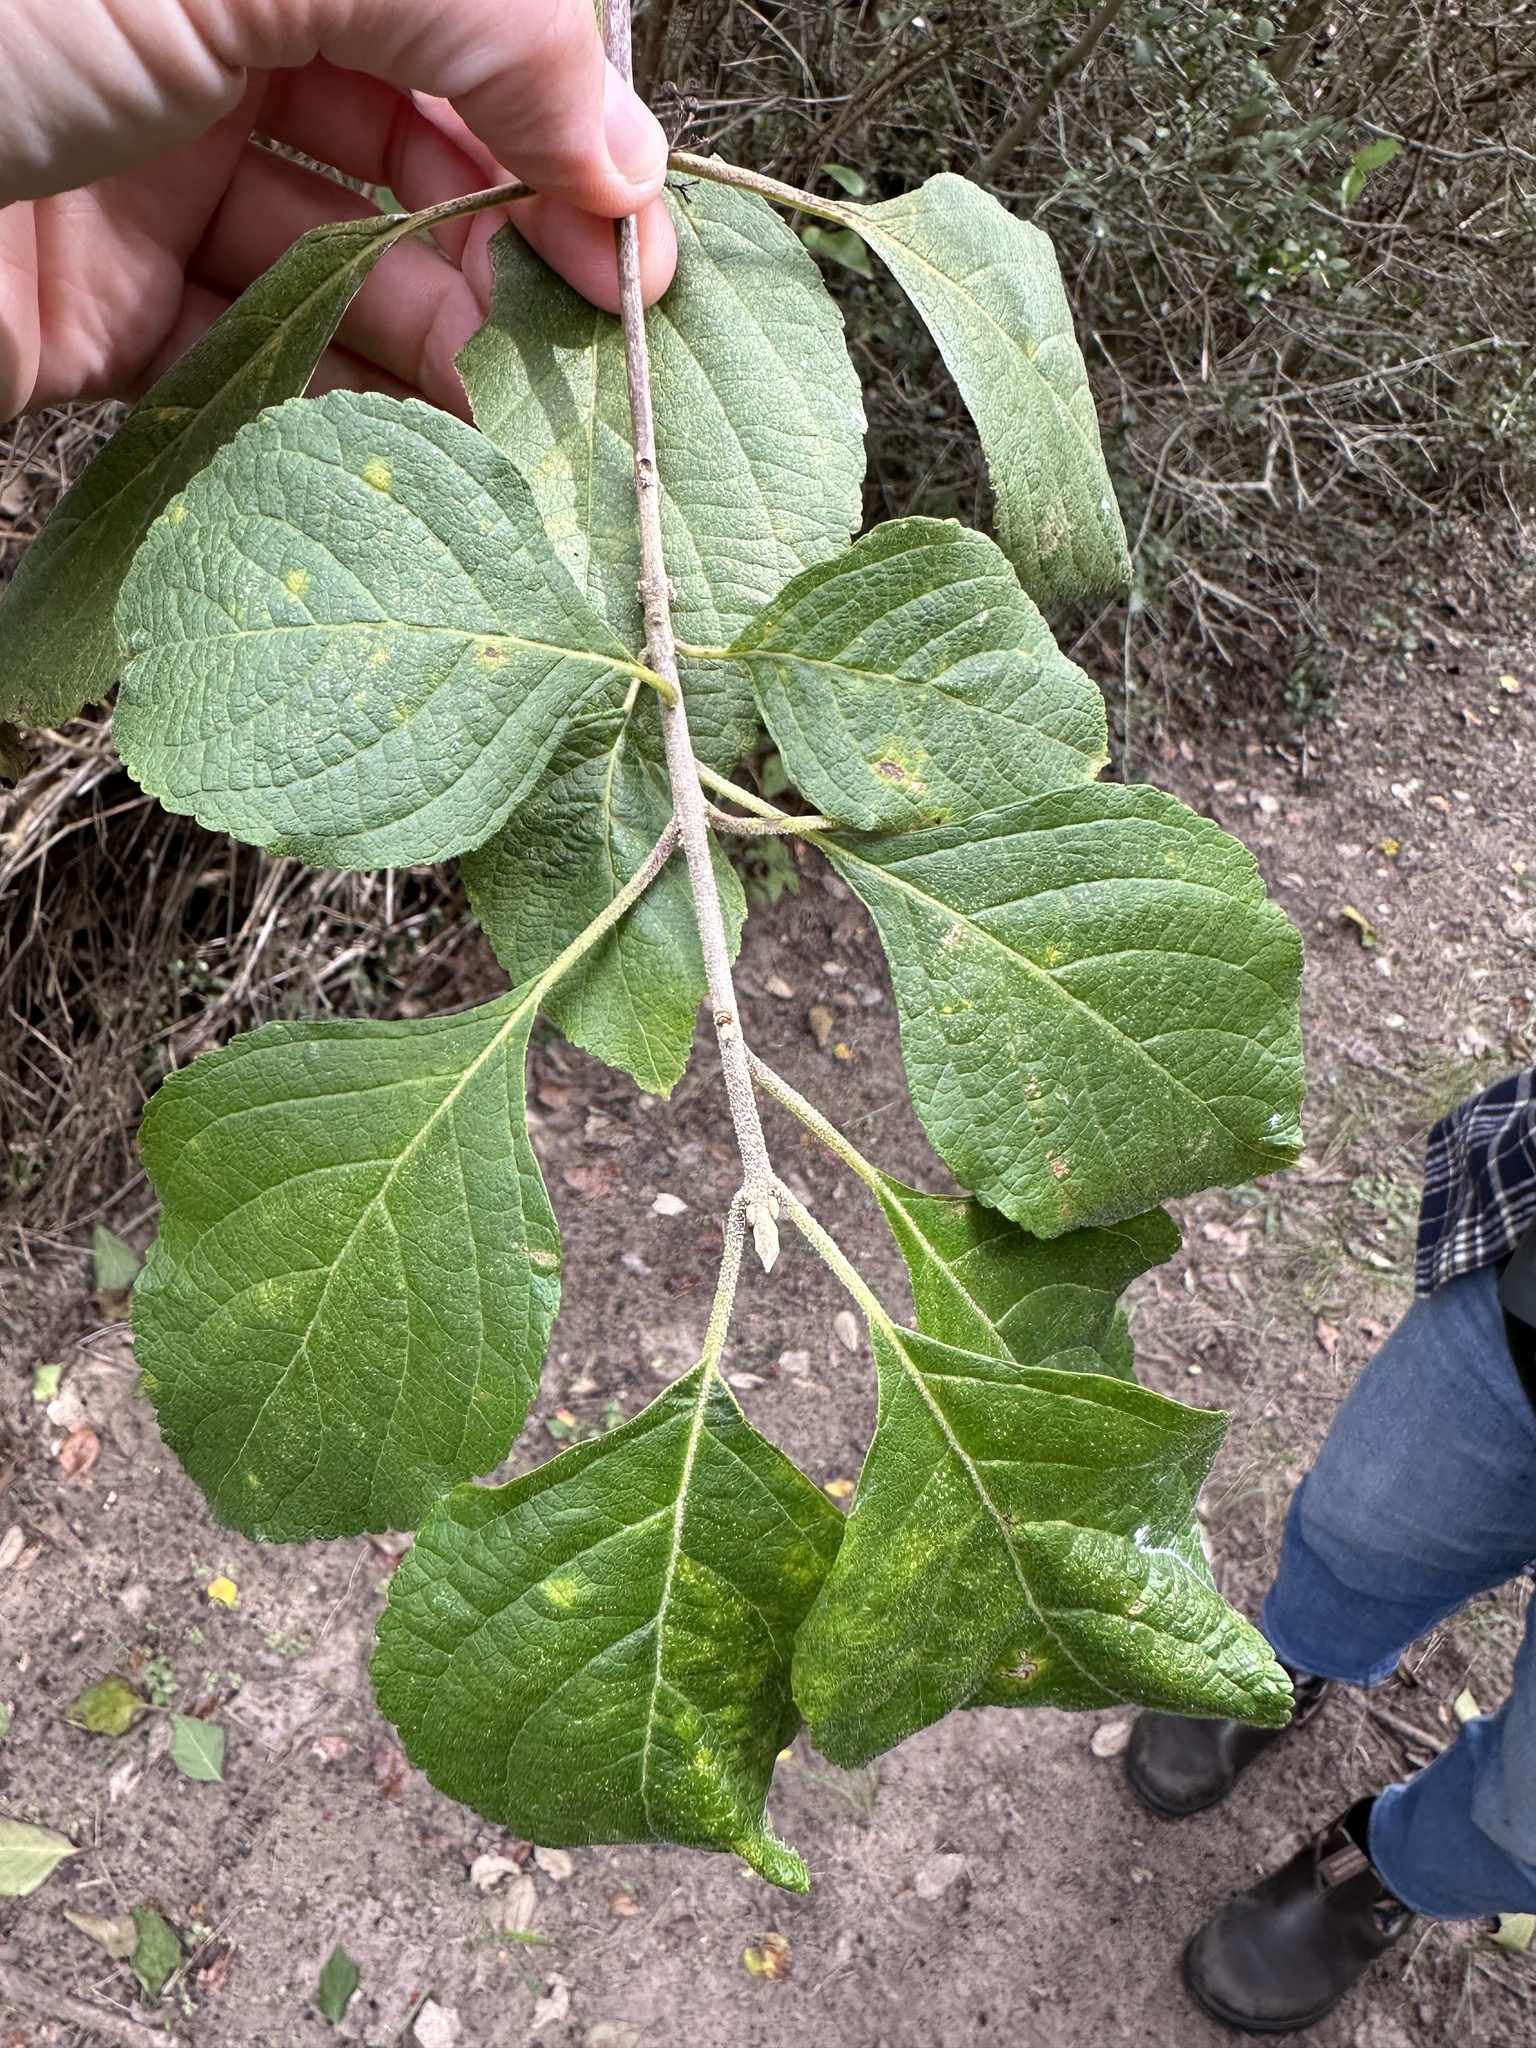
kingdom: Plantae
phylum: Tracheophyta
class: Magnoliopsida
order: Lamiales
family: Lamiaceae
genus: Callicarpa
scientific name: Callicarpa americana
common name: American beautyberry
